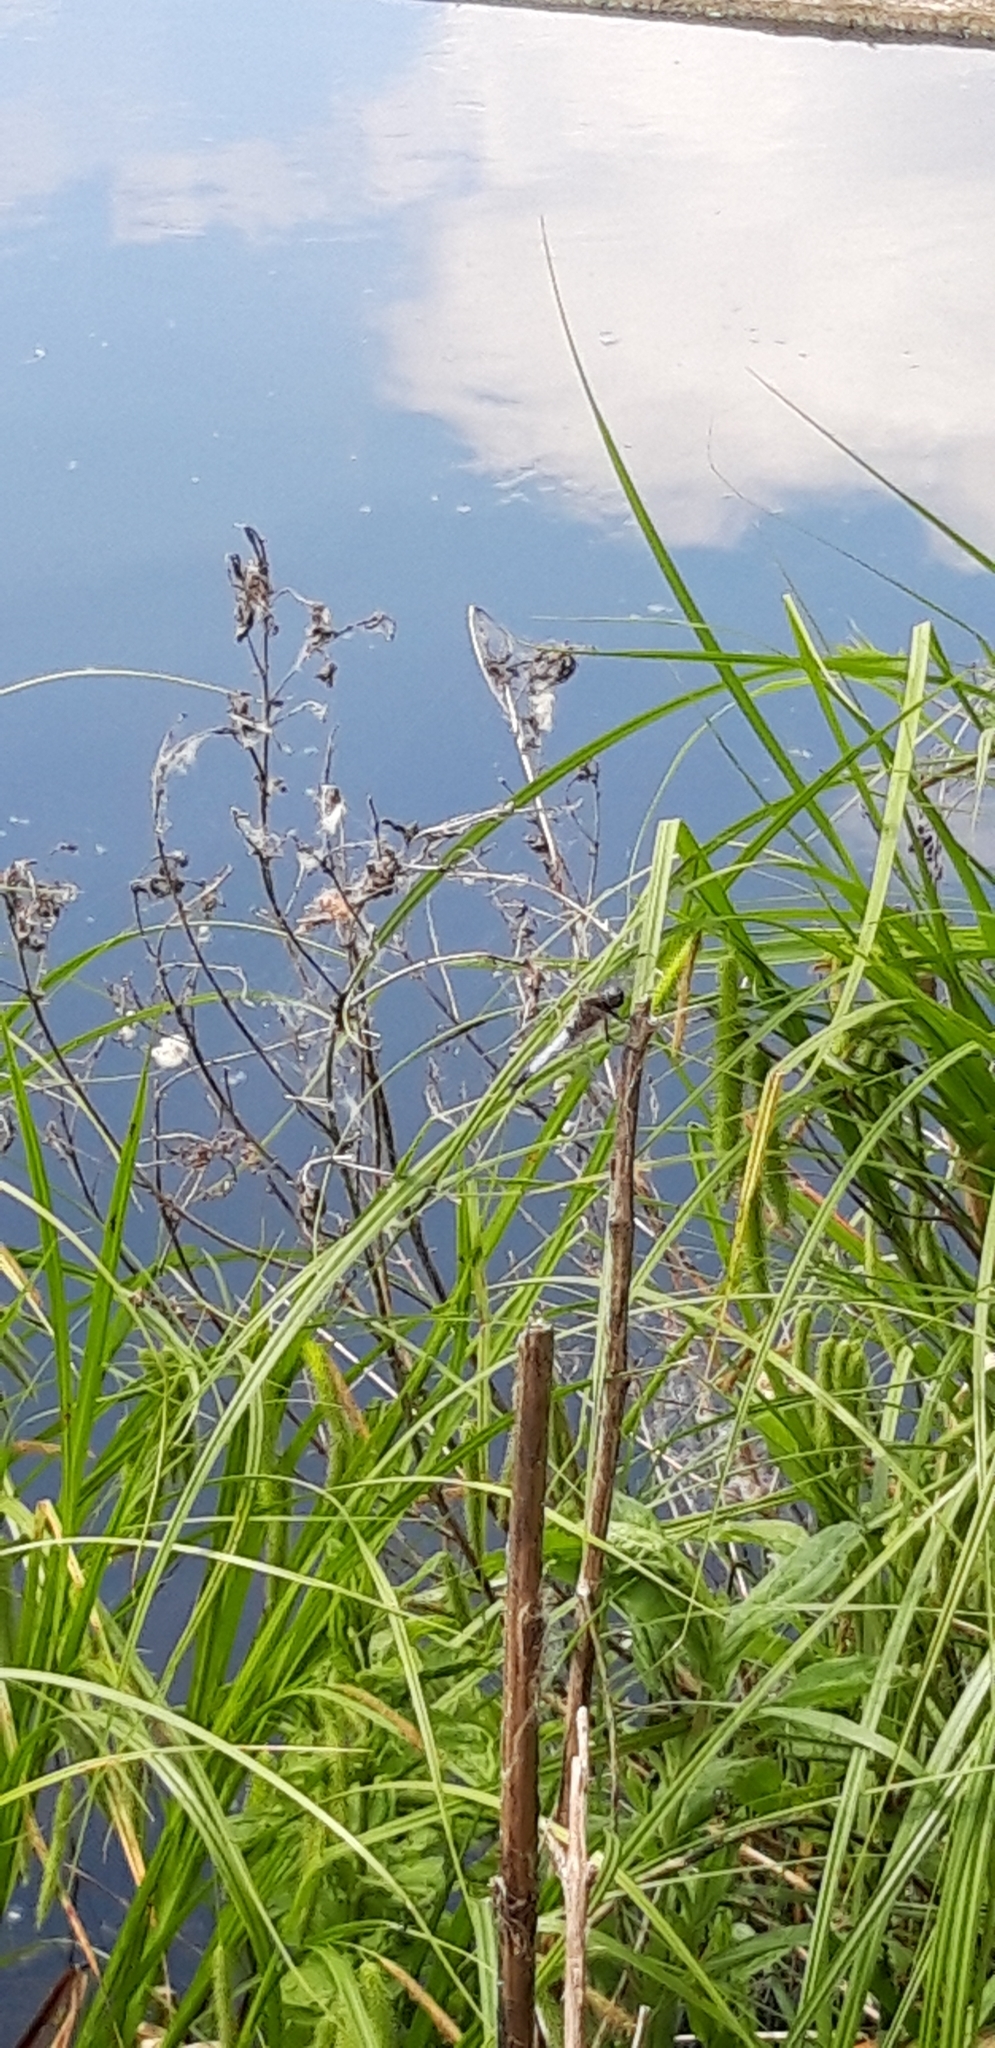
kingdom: Animalia
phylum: Arthropoda
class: Insecta
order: Odonata
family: Libellulidae
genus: Libellula
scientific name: Libellula fulva
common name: Blue chaser
